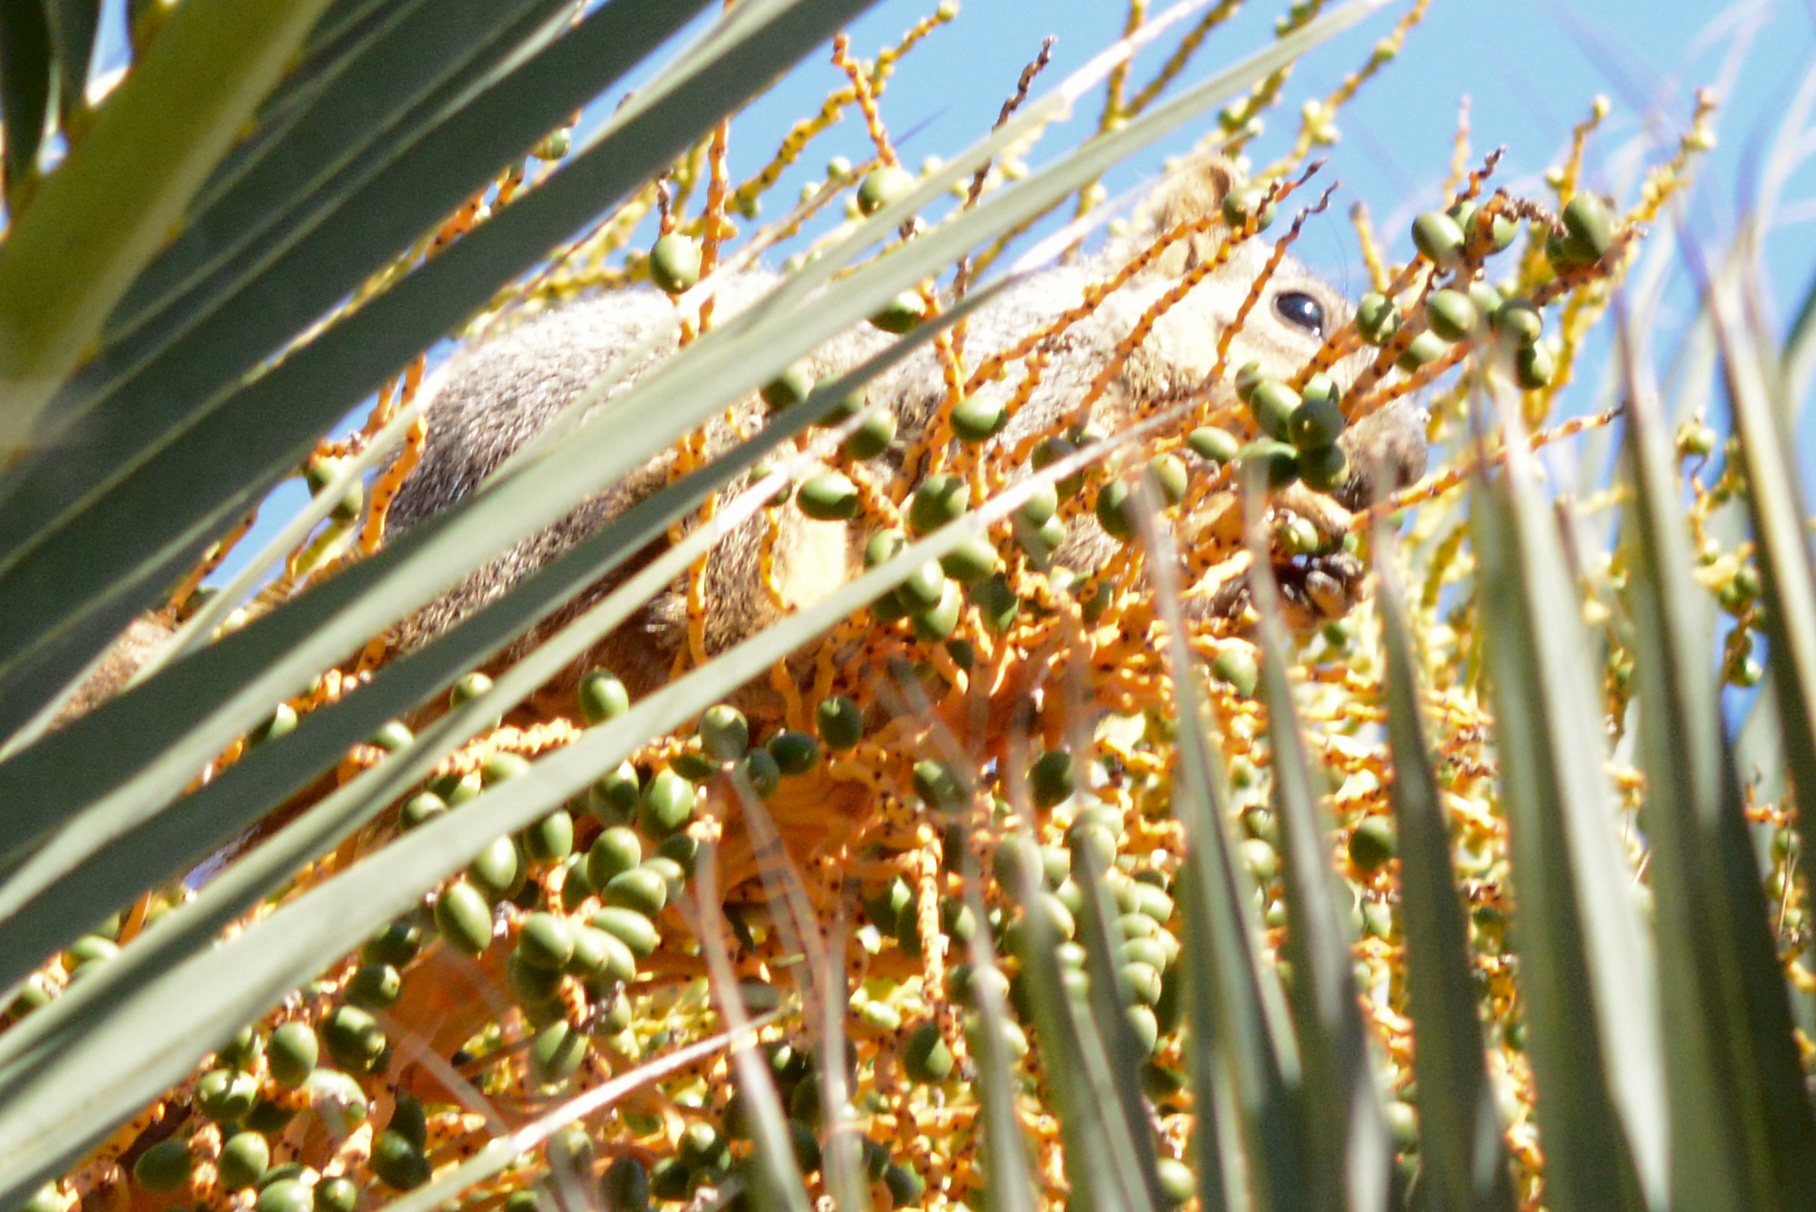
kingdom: Animalia
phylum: Chordata
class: Mammalia
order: Rodentia
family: Sciuridae
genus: Sciurus
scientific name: Sciurus niger
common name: Fox squirrel
